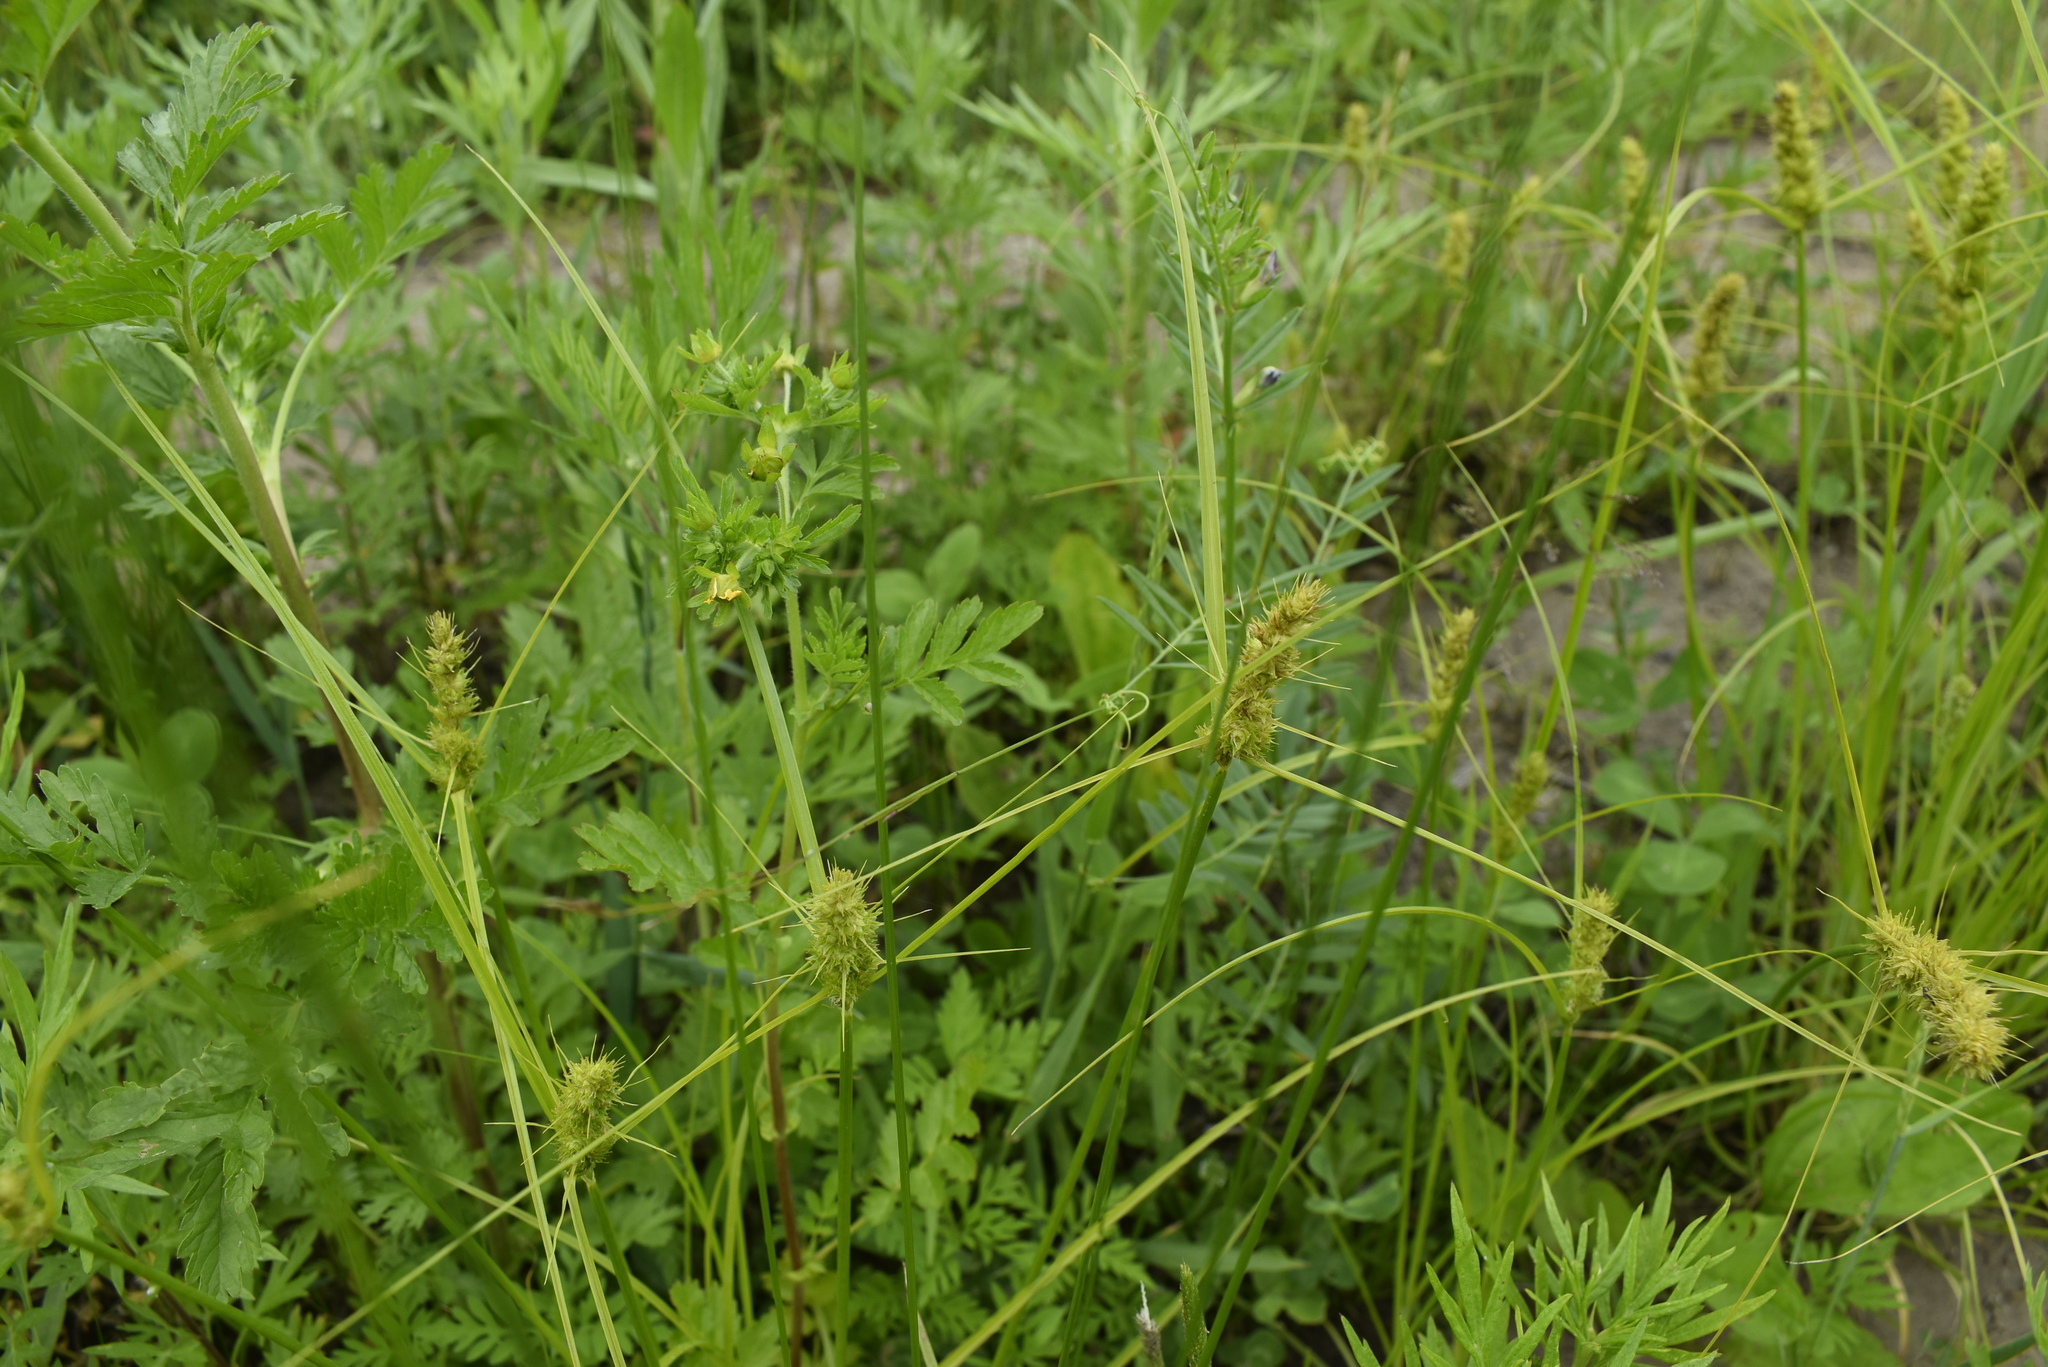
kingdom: Plantae
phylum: Tracheophyta
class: Liliopsida
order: Poales
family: Cyperaceae
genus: Carex
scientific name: Carex neurocarpa
